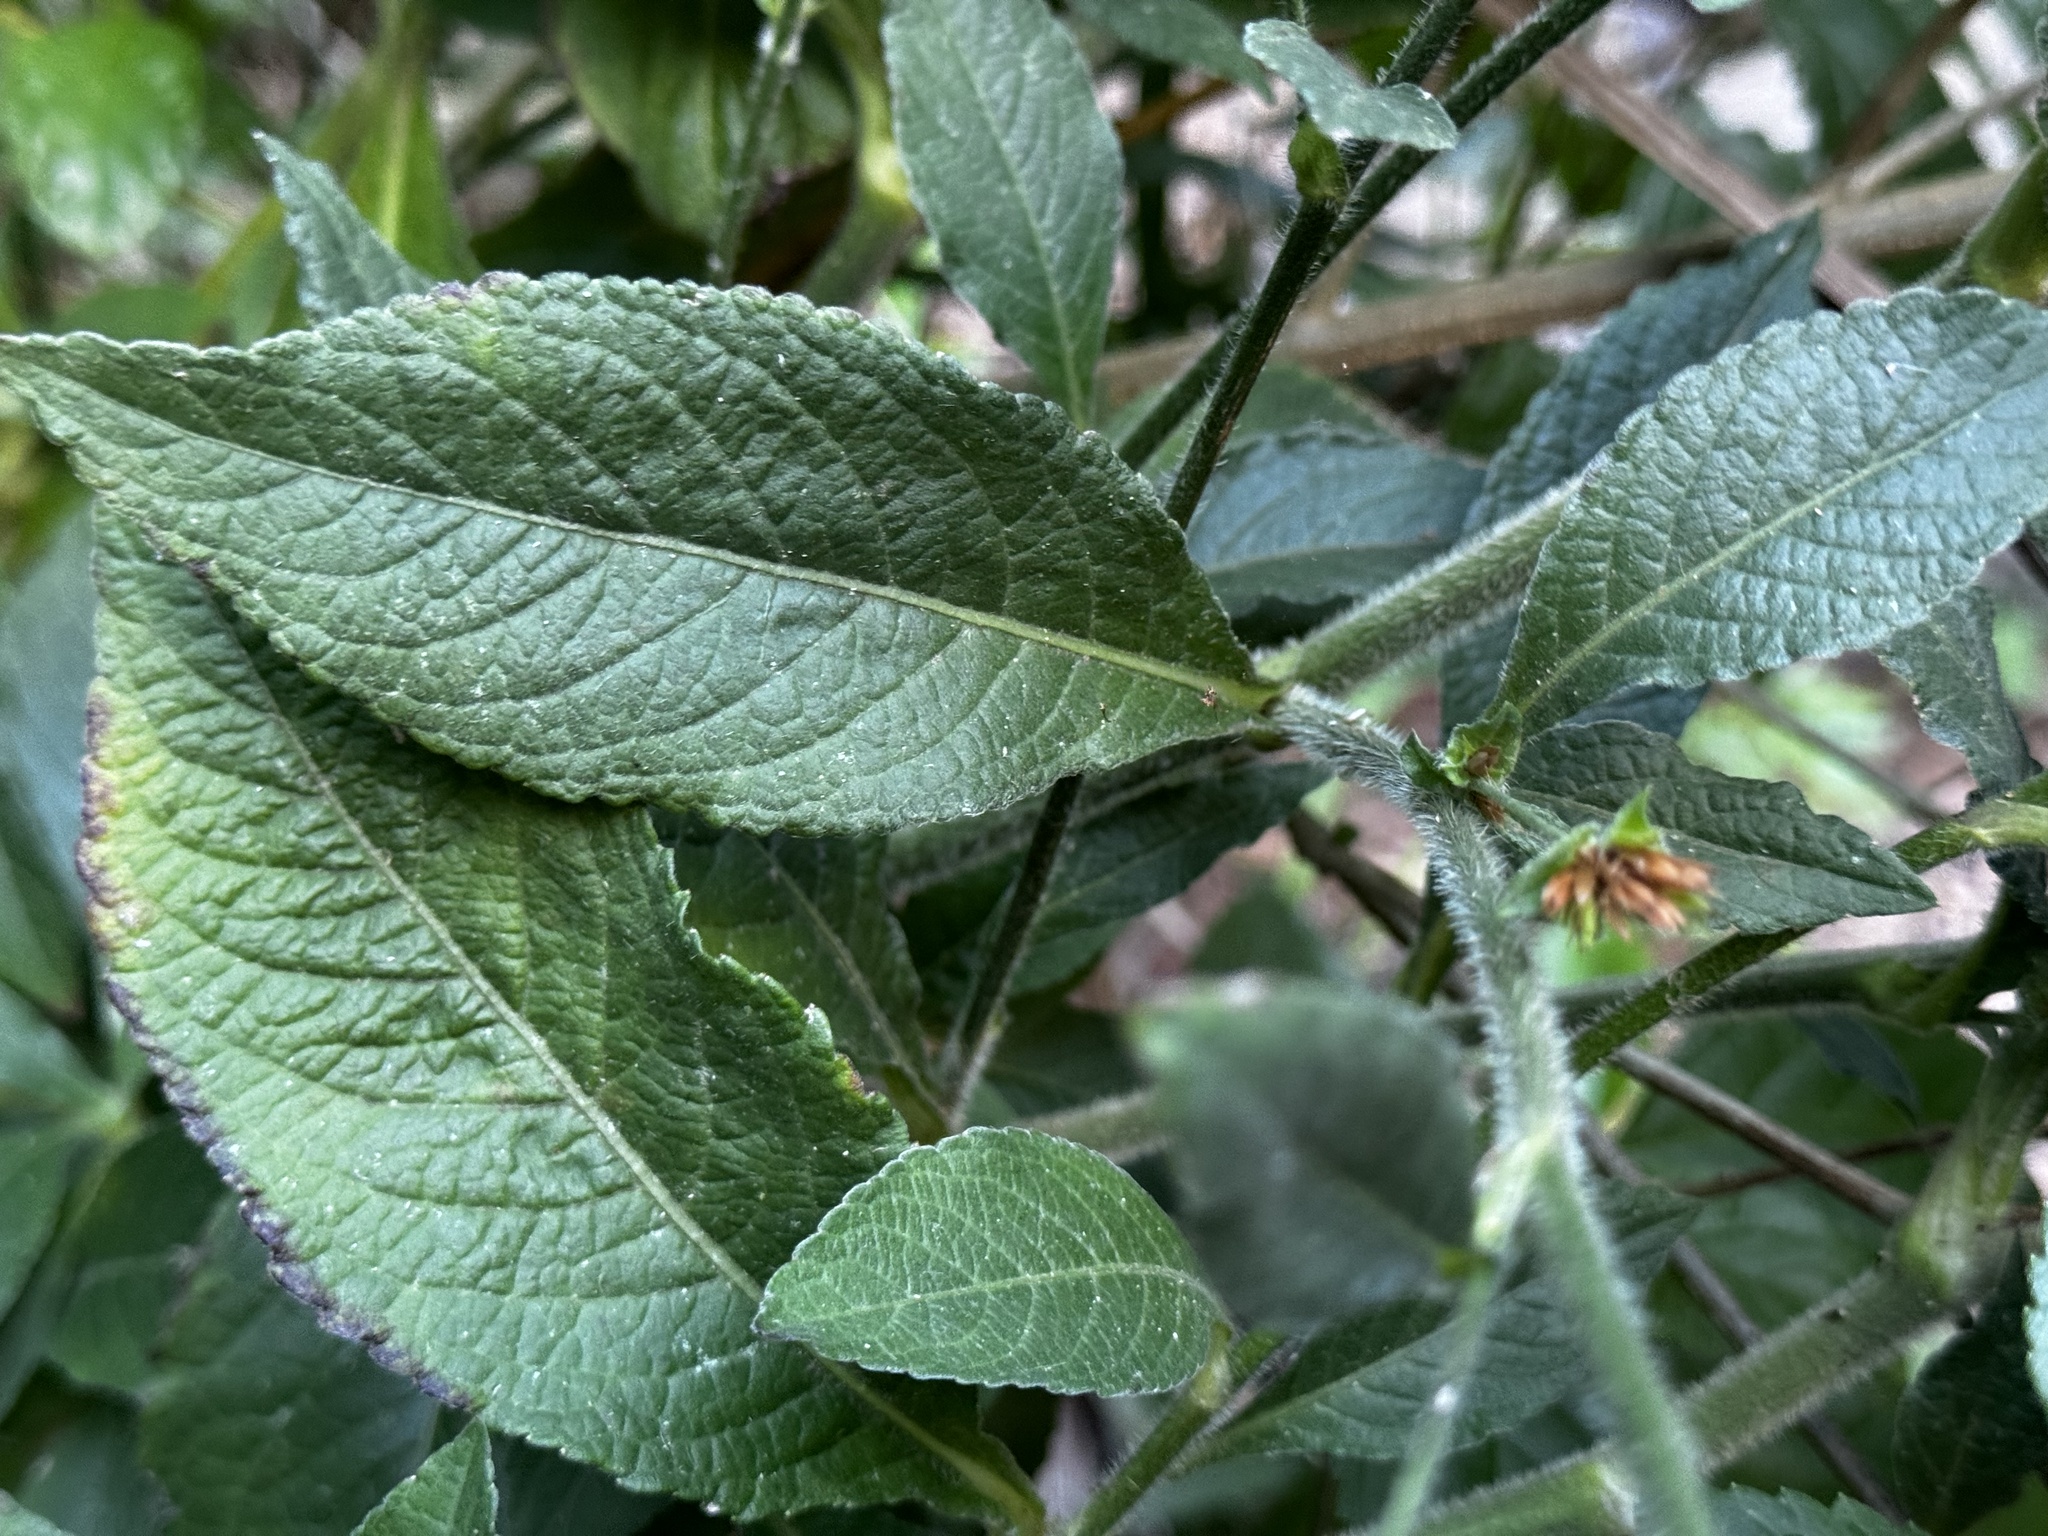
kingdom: Plantae
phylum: Tracheophyta
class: Magnoliopsida
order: Asterales
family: Asteraceae
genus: Elephantopus
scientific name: Elephantopus mollis
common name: Soft elephantsfoot
